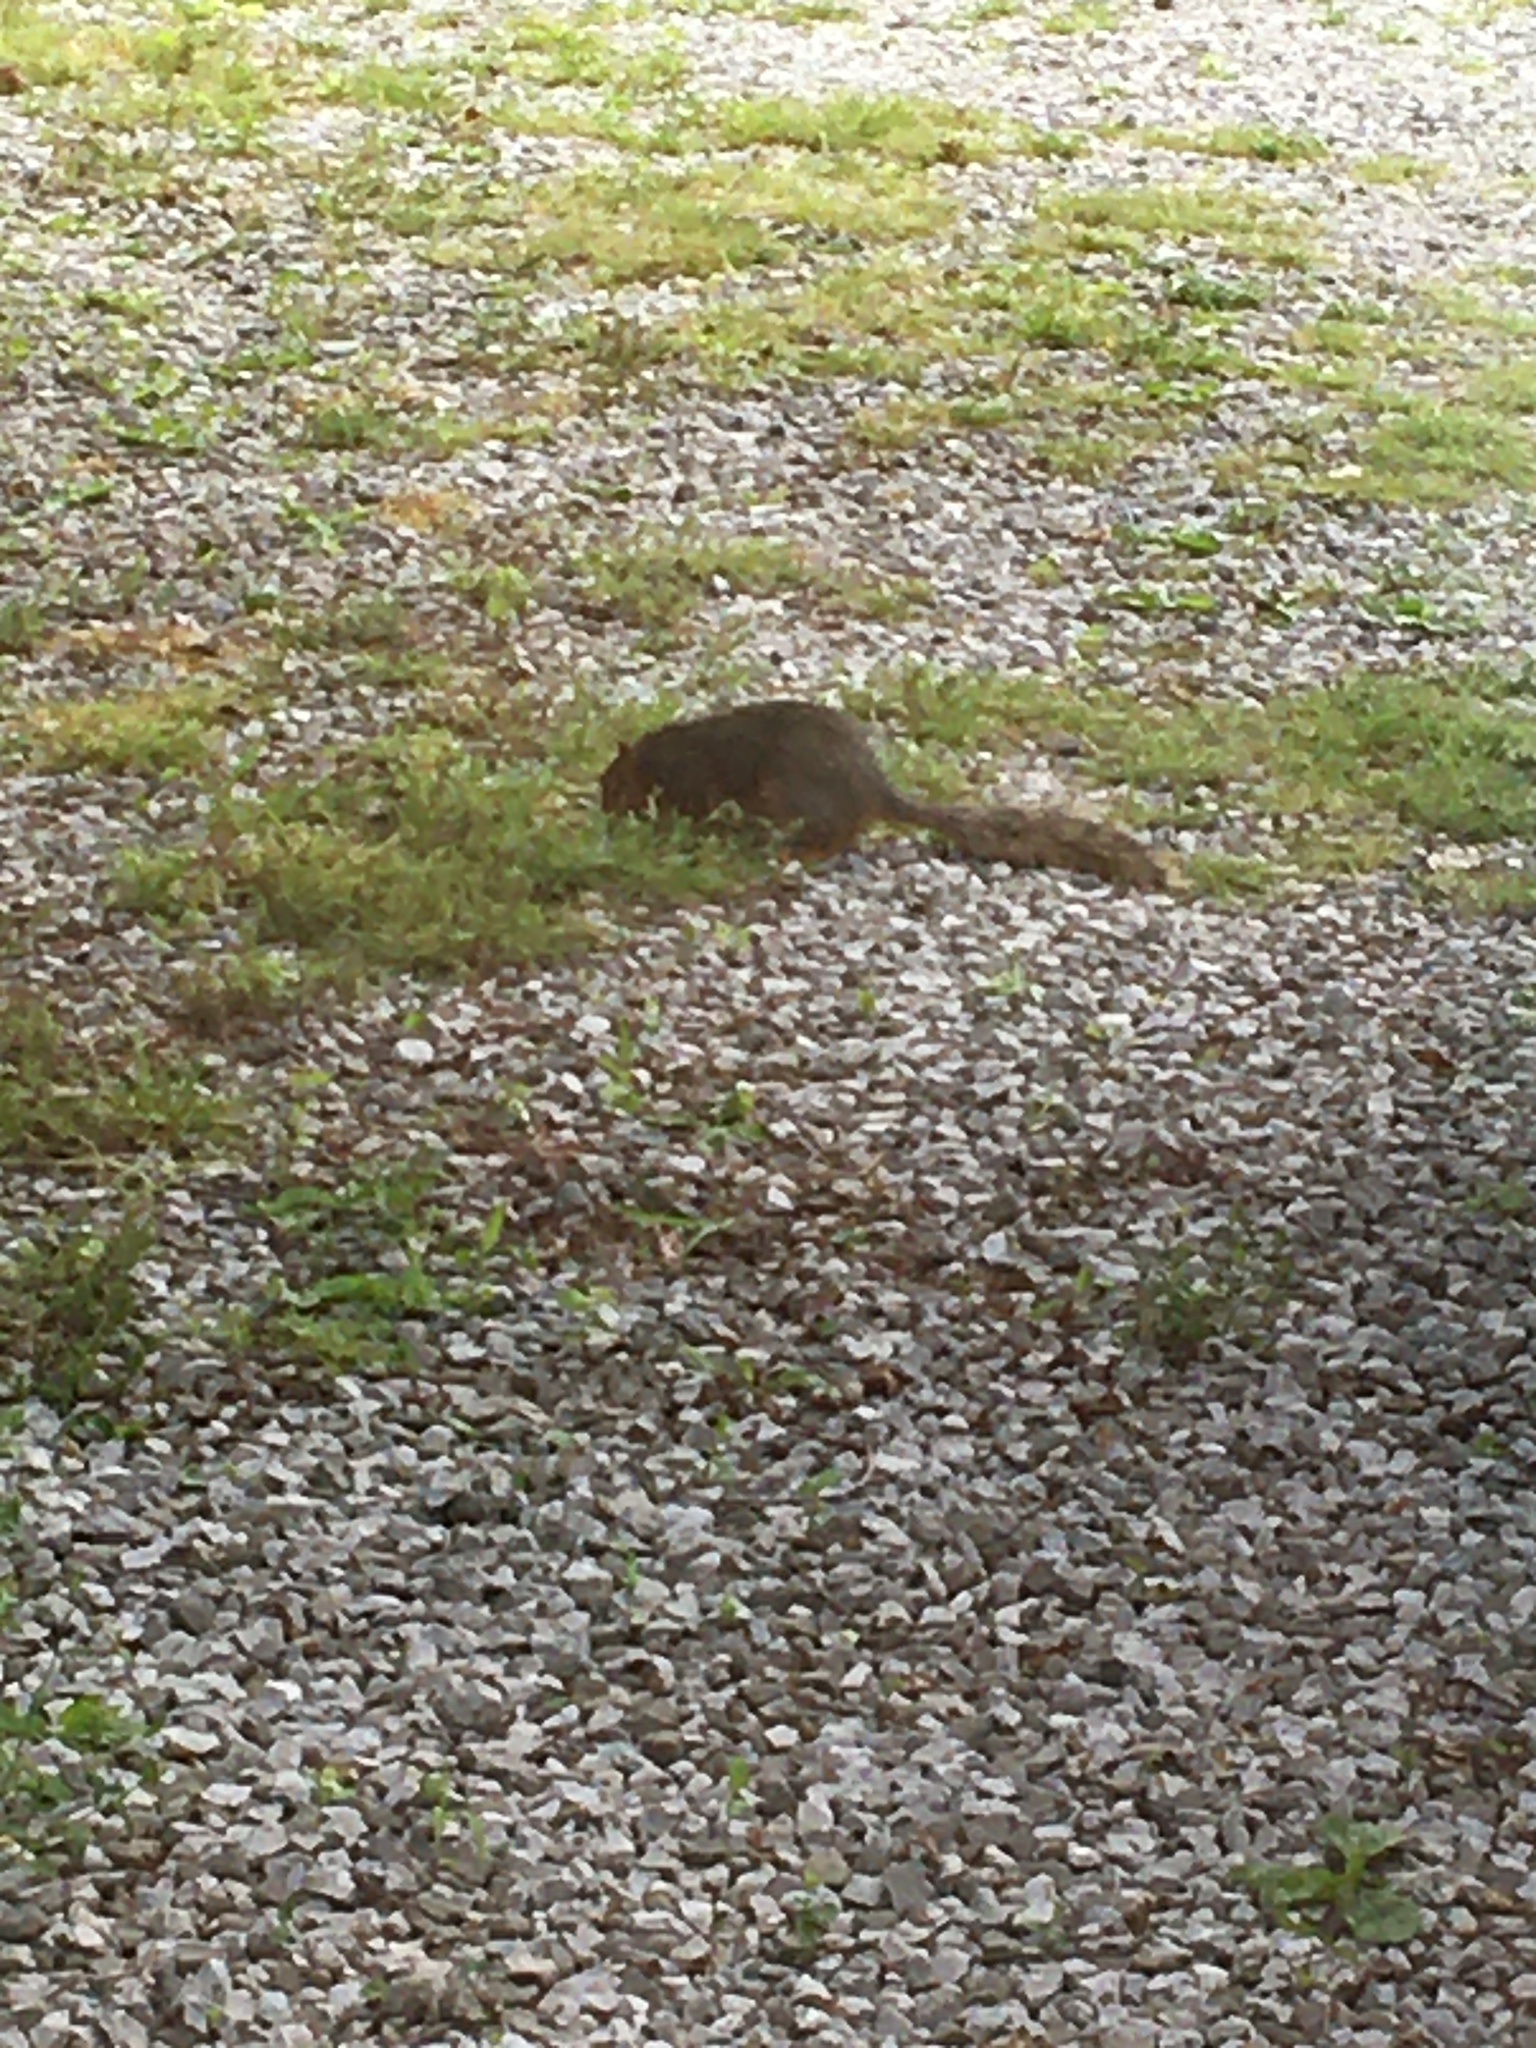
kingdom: Animalia
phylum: Chordata
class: Mammalia
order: Rodentia
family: Sciuridae
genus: Sciurus
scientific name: Sciurus niger
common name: Fox squirrel
